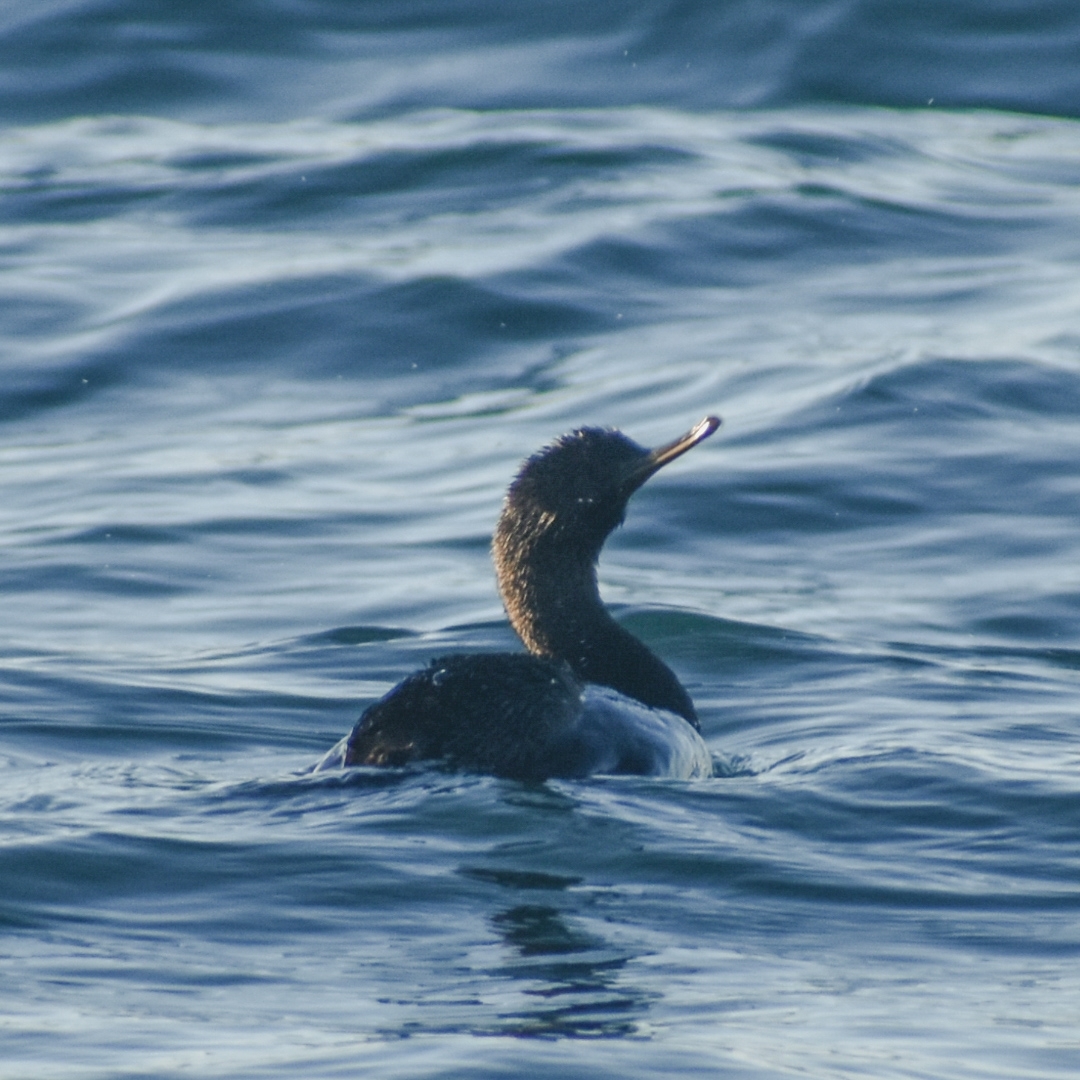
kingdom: Animalia
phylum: Chordata
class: Aves
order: Suliformes
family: Phalacrocoracidae
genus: Phalacrocorax
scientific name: Phalacrocorax pelagicus
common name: Pelagic cormorant
